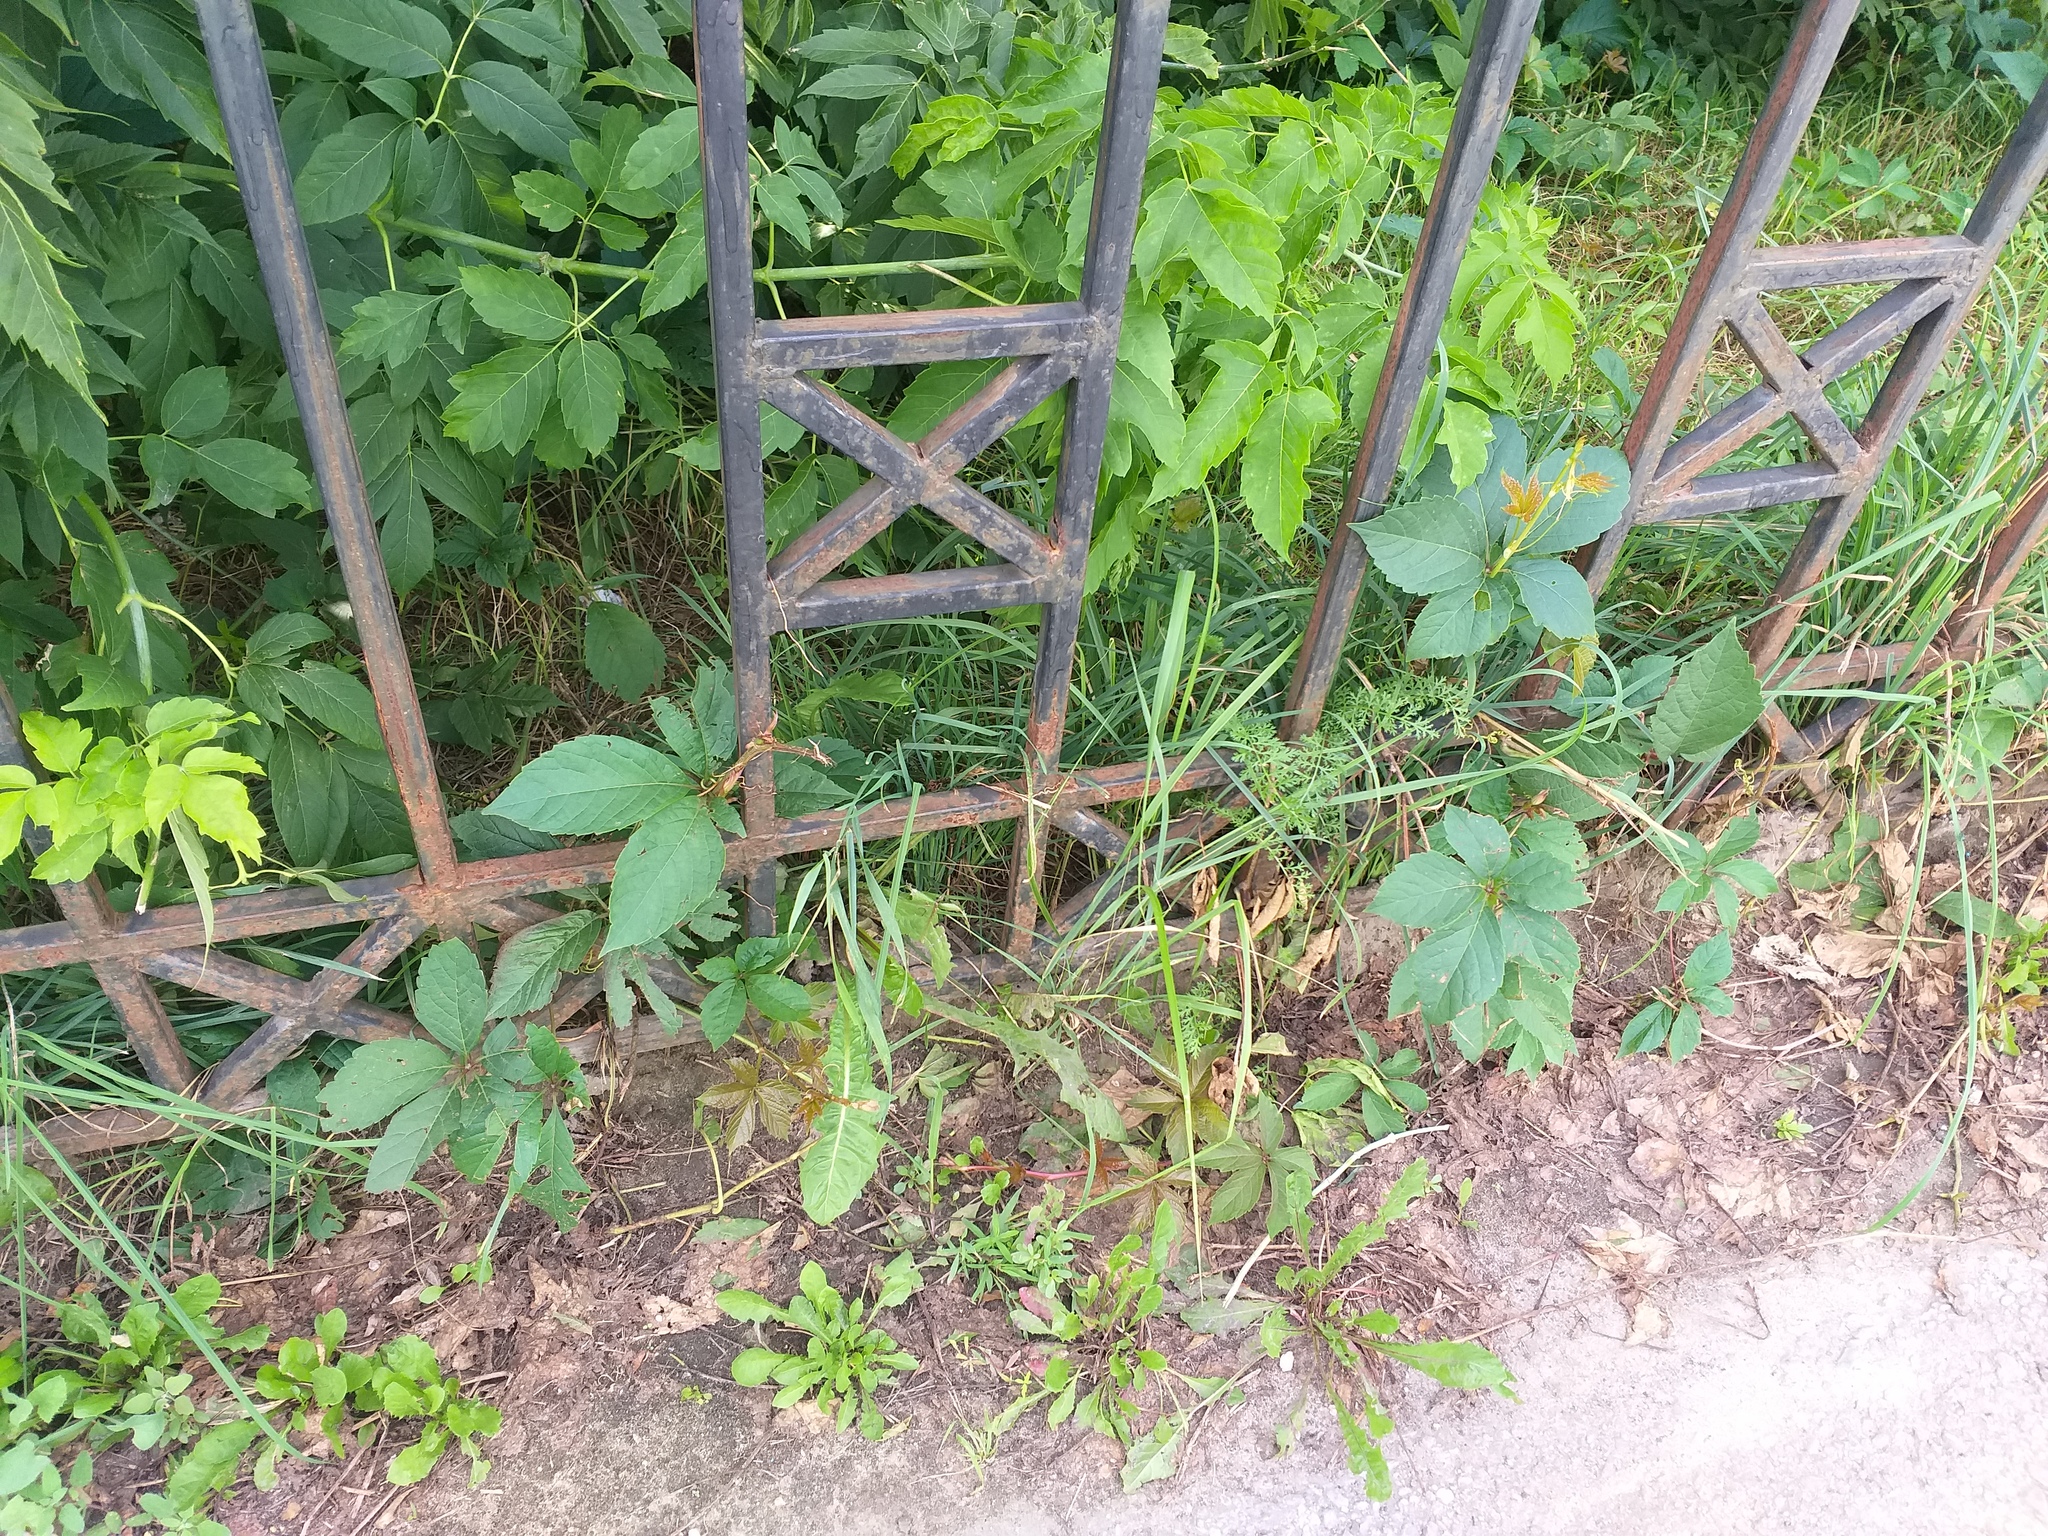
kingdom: Plantae
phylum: Tracheophyta
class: Magnoliopsida
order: Vitales
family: Vitaceae
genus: Parthenocissus
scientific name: Parthenocissus inserta
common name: False virginia-creeper
